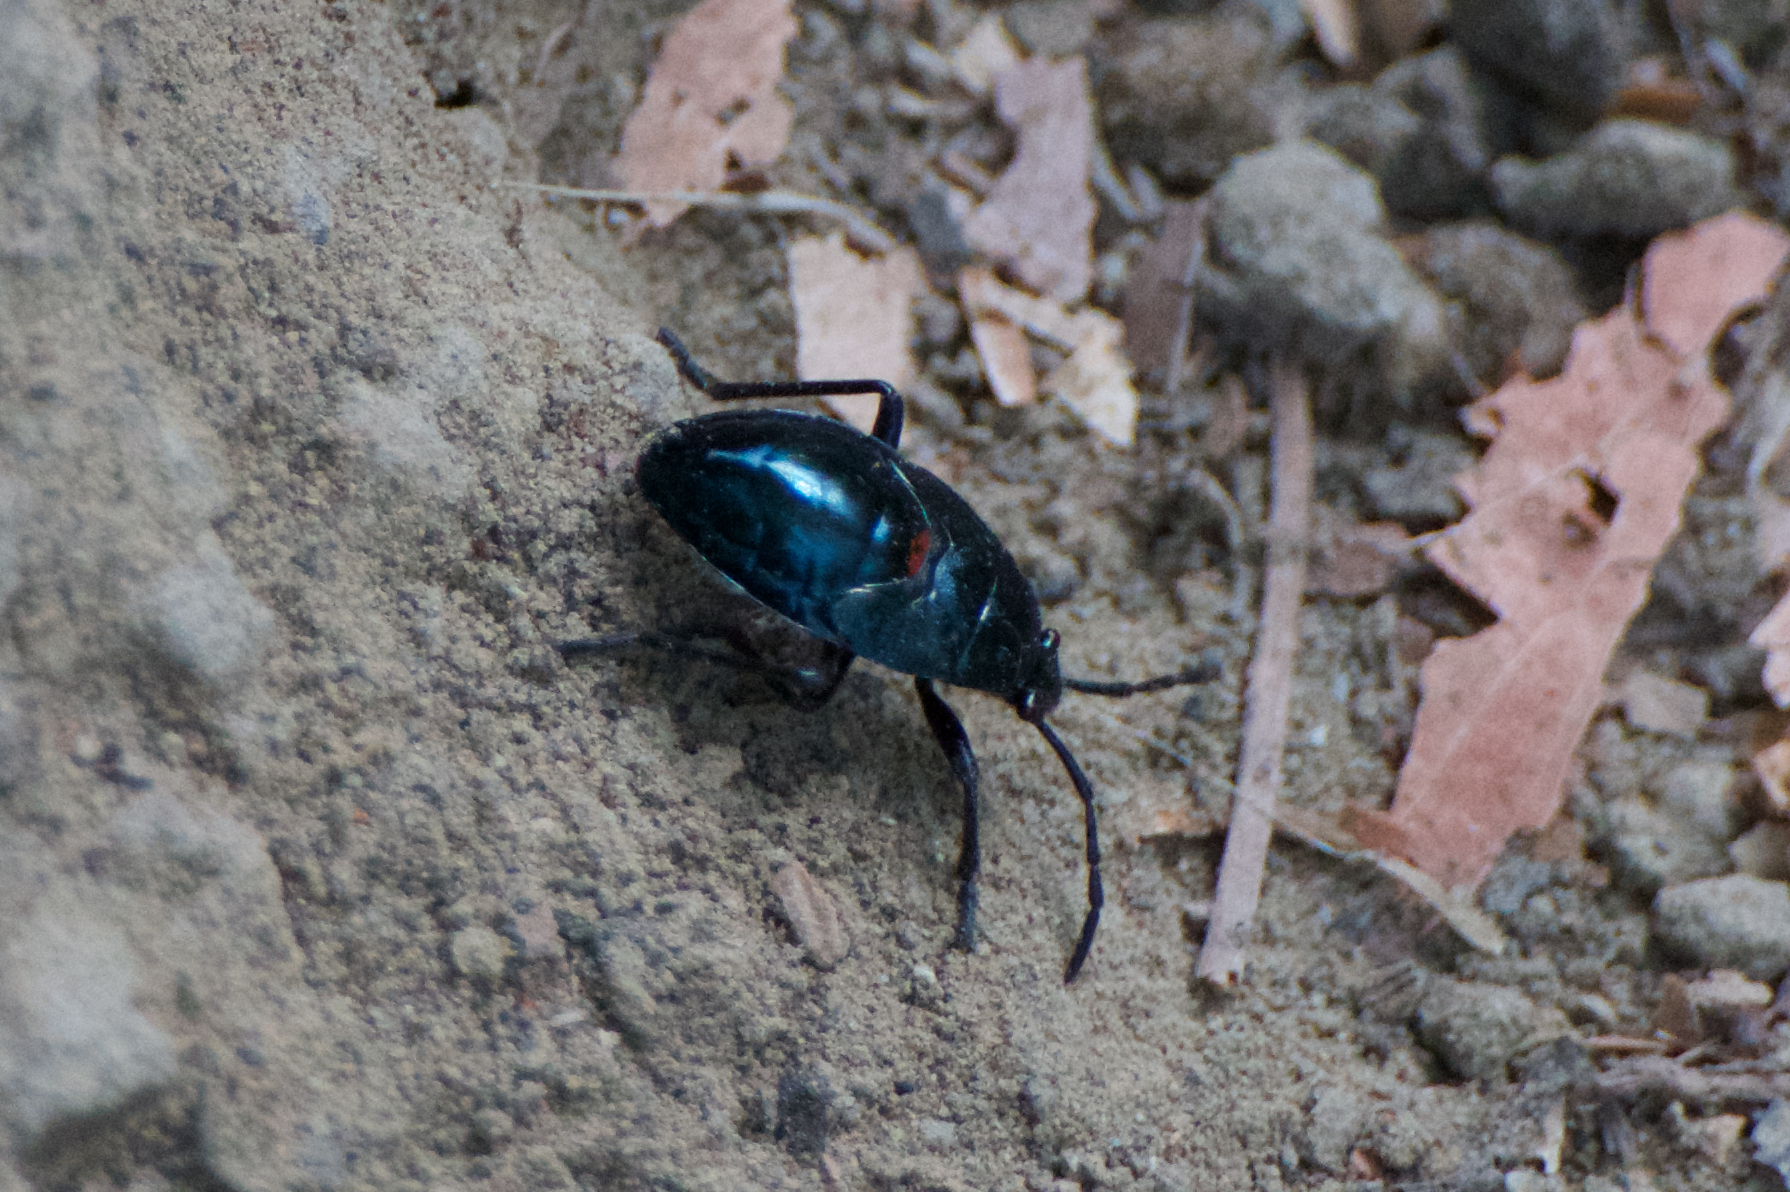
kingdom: Animalia
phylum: Arthropoda
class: Insecta
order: Hemiptera
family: Largidae
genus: Largus
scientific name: Largus californicus
